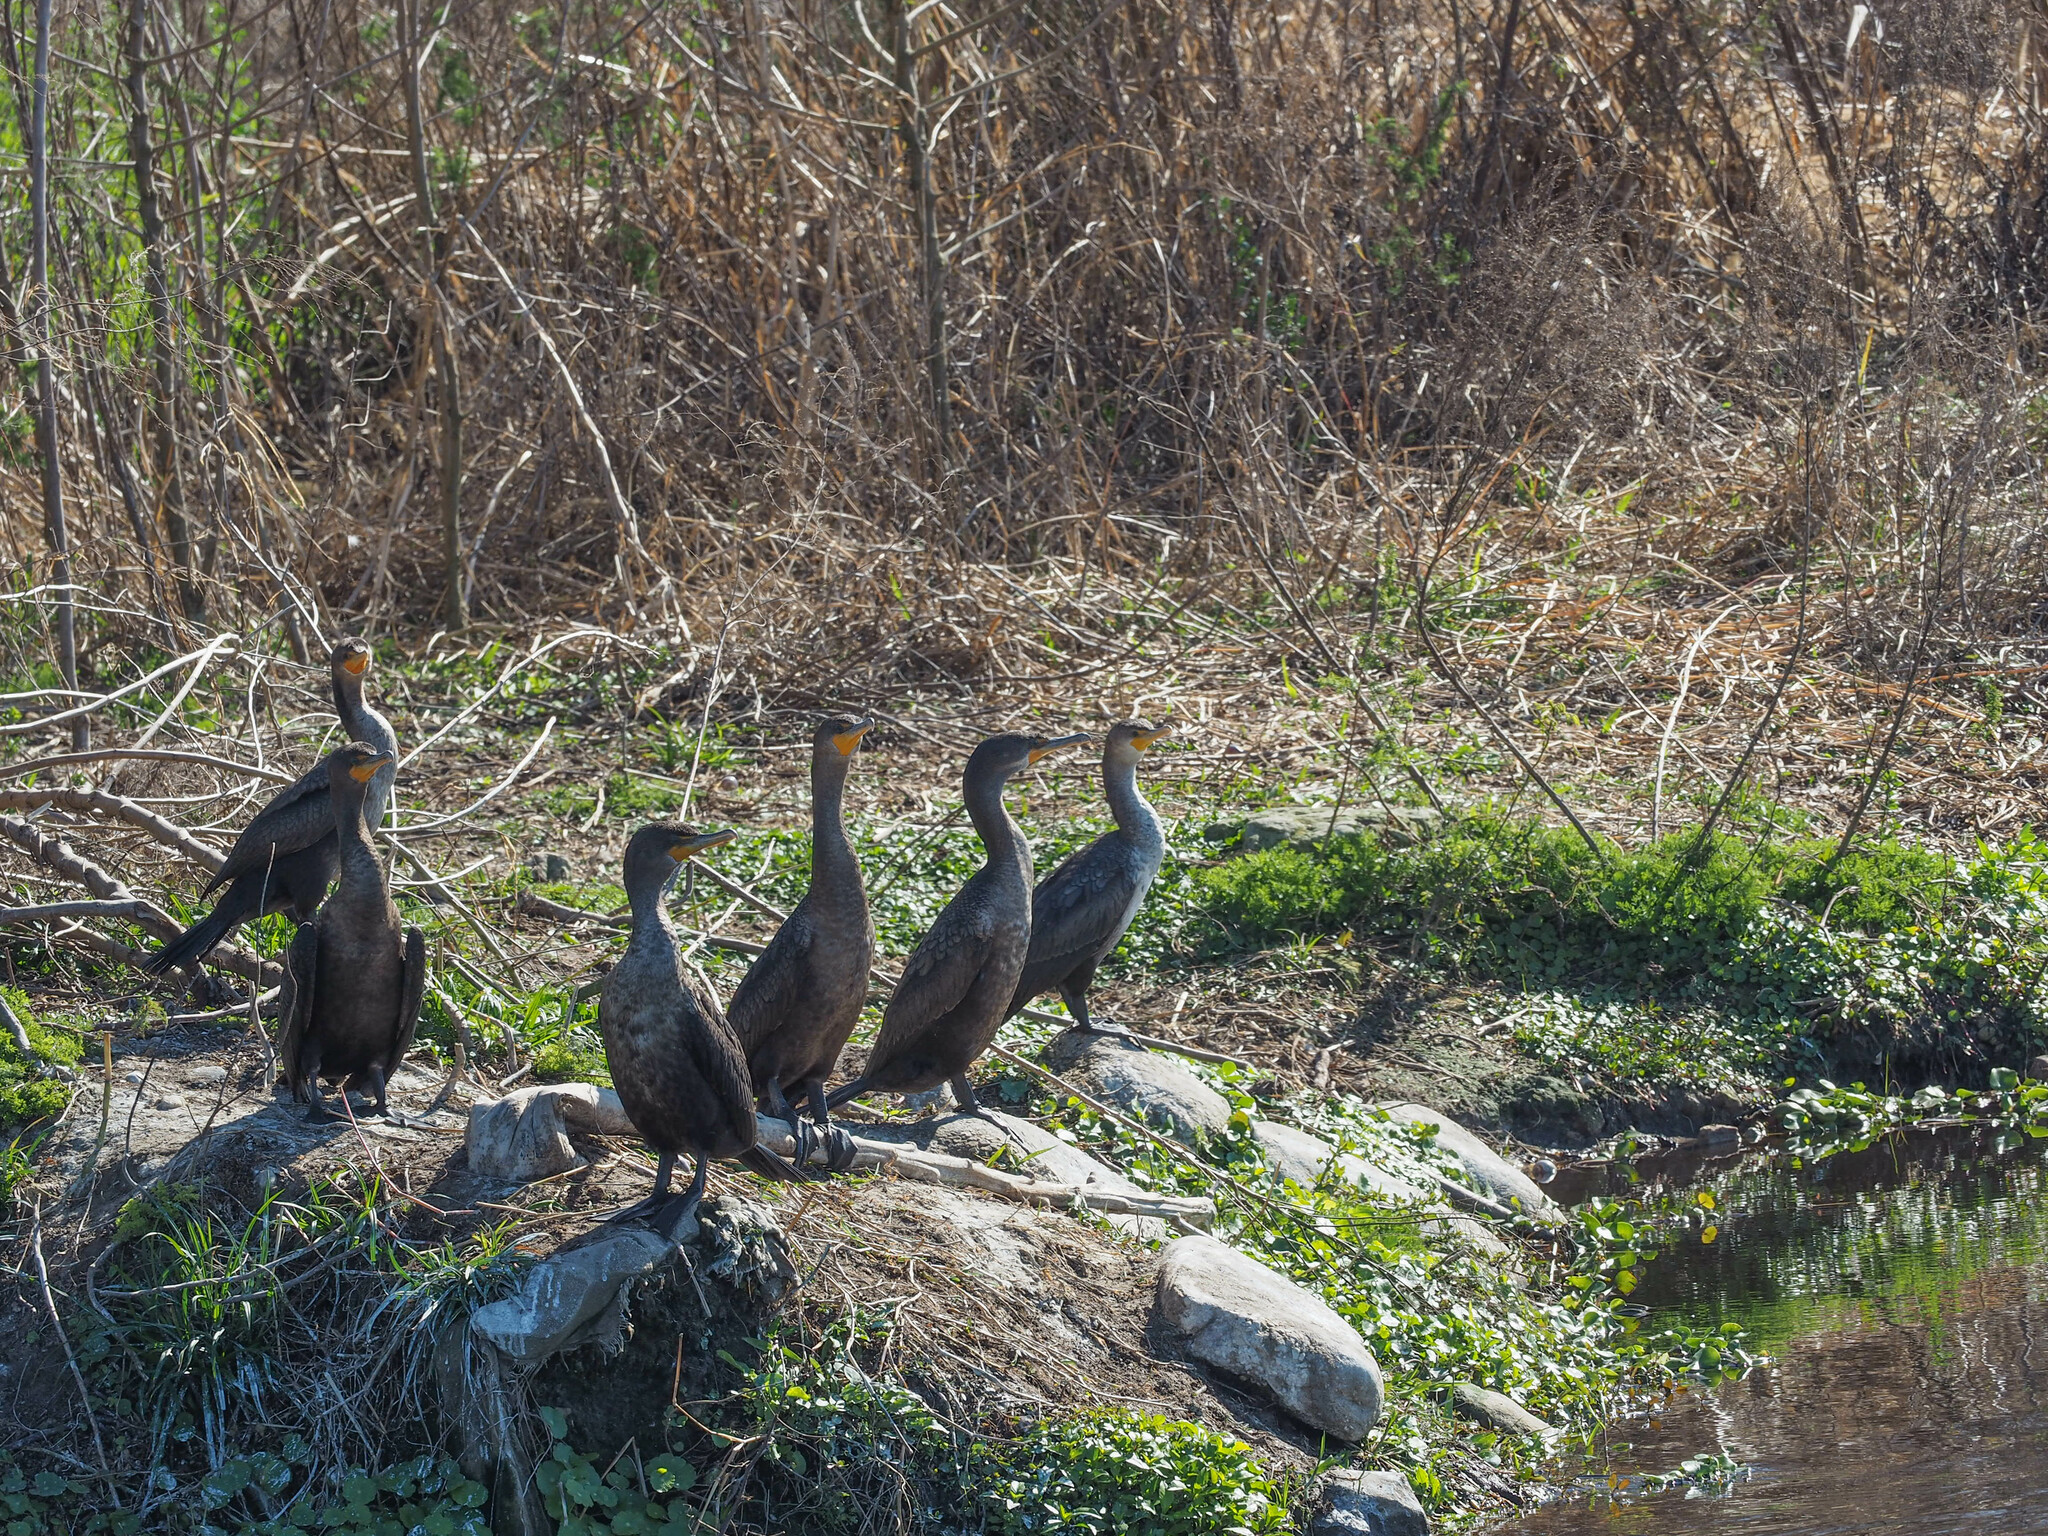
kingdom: Animalia
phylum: Chordata
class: Aves
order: Suliformes
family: Phalacrocoracidae
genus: Phalacrocorax
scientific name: Phalacrocorax auritus
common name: Double-crested cormorant
